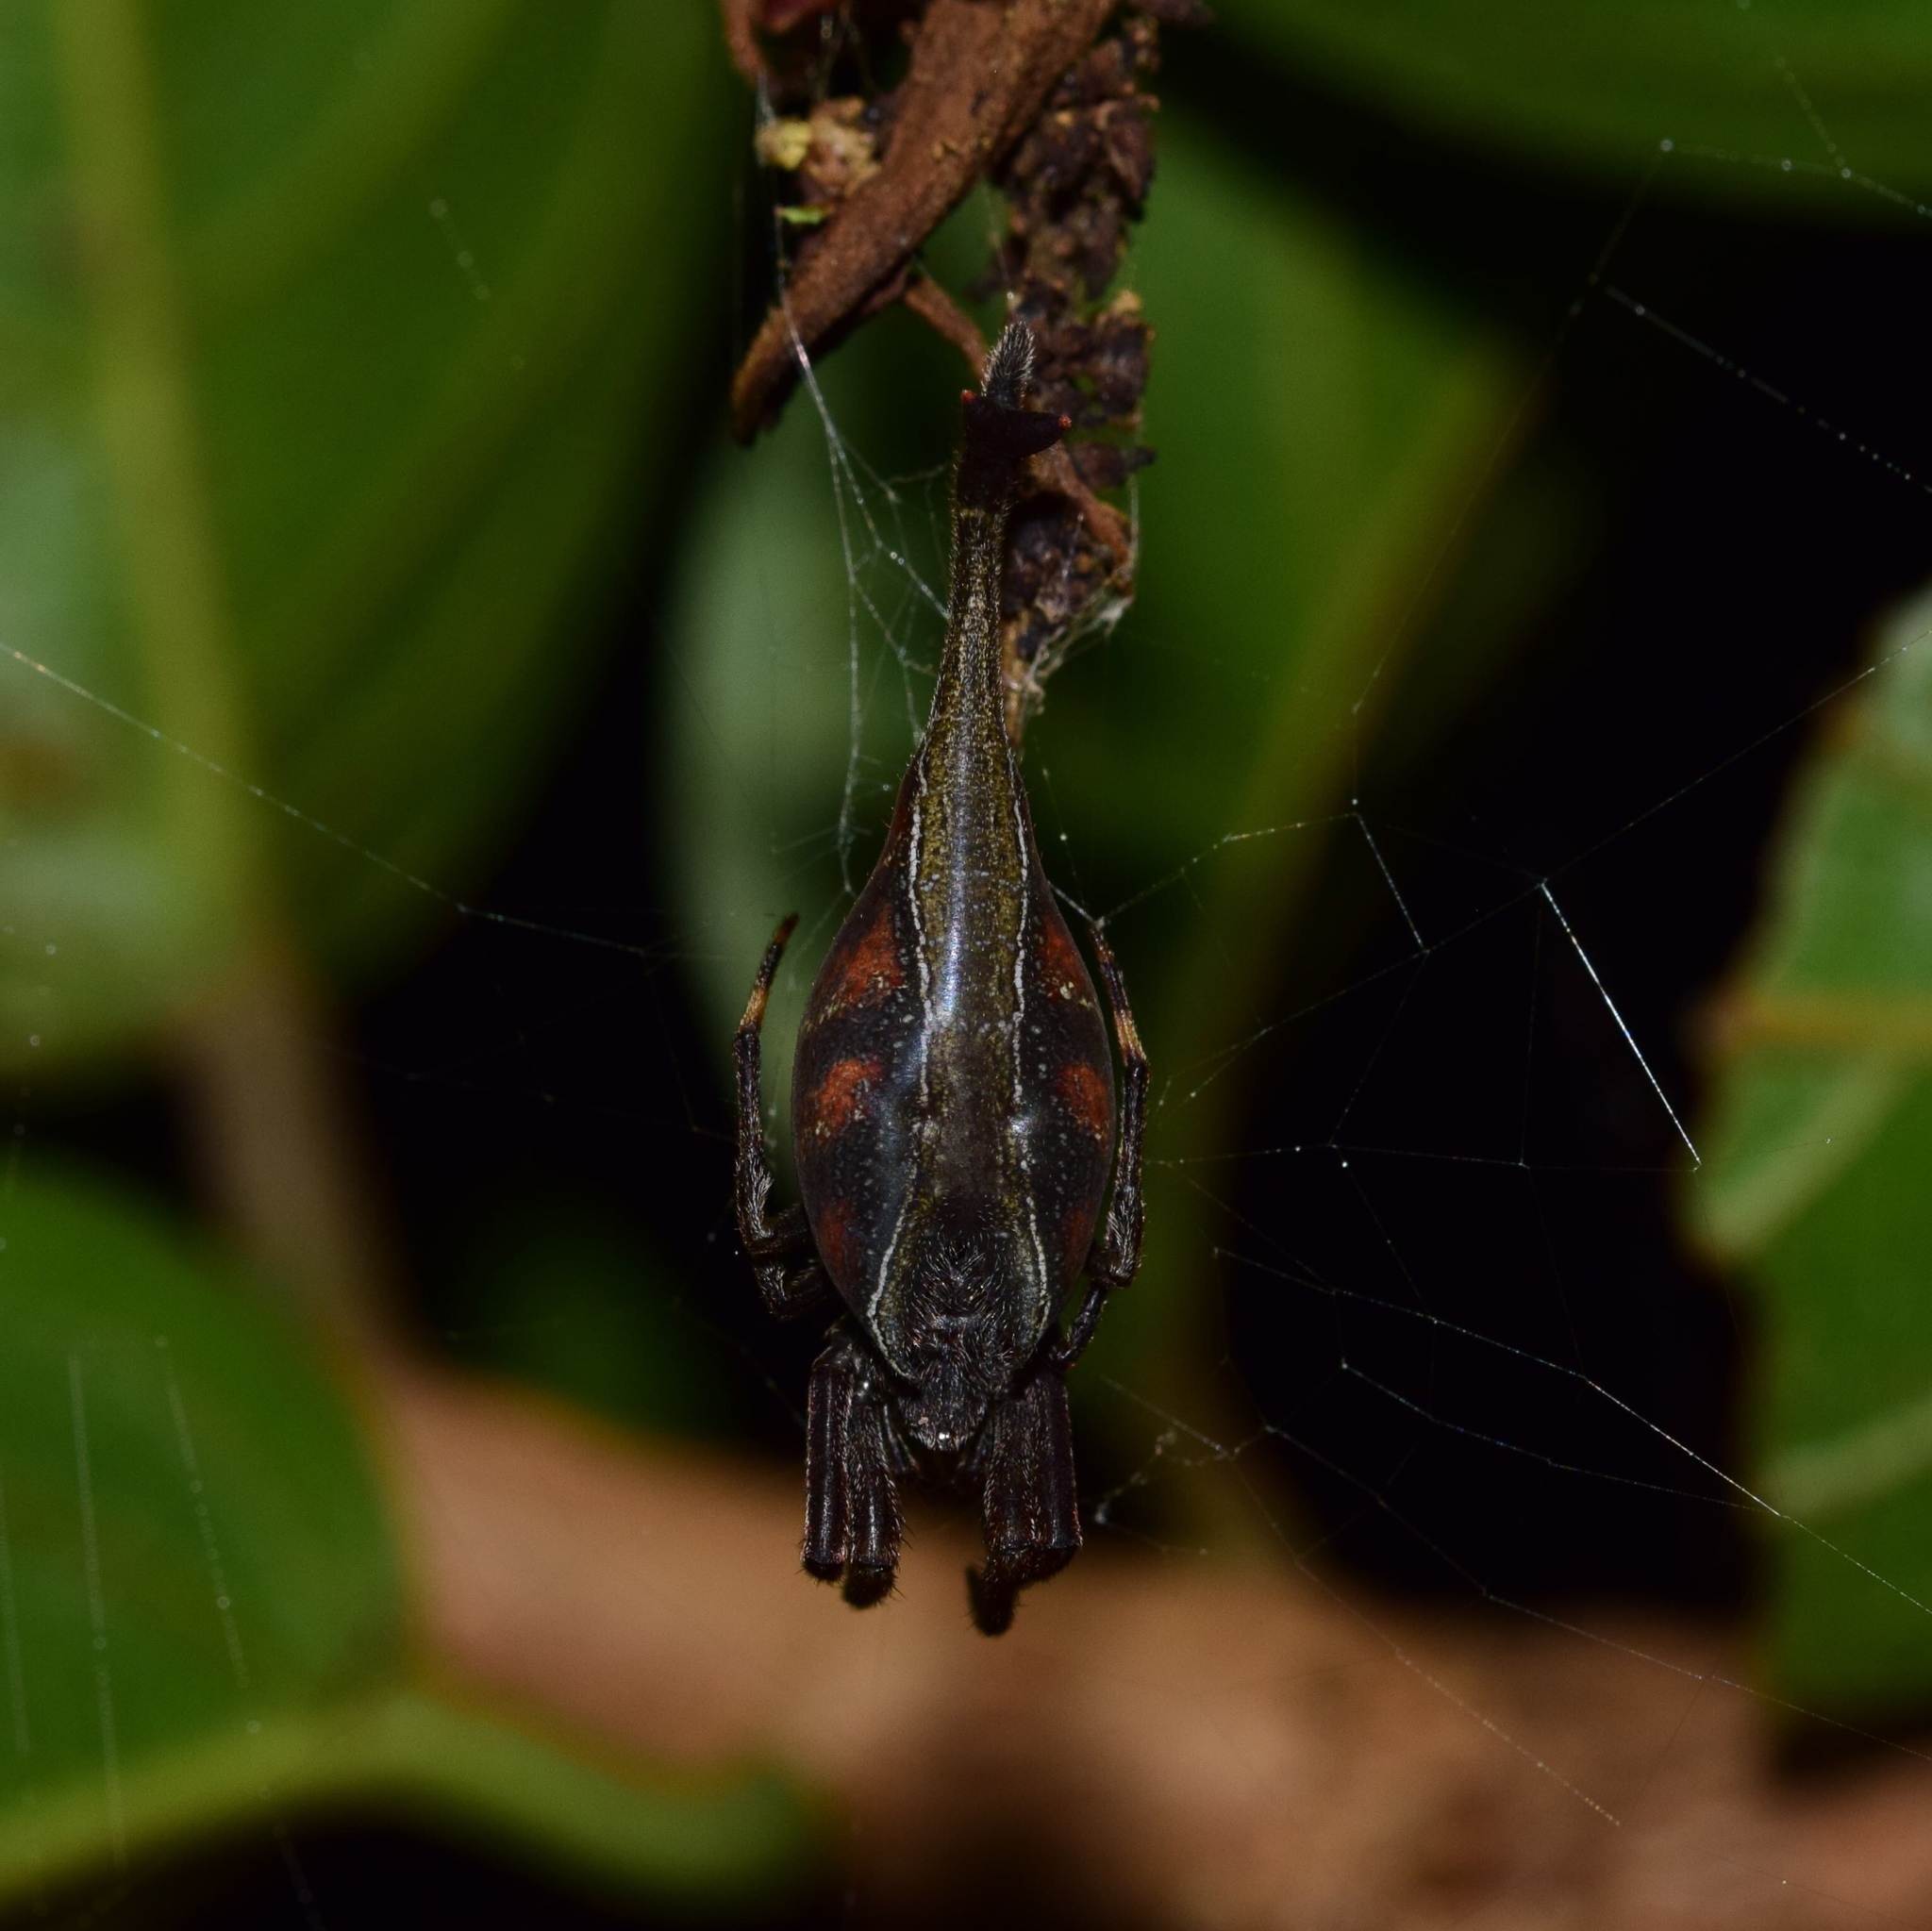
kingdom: Animalia
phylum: Arthropoda
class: Arachnida
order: Araneae
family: Araneidae
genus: Arachnura
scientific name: Arachnura scorpionoides
